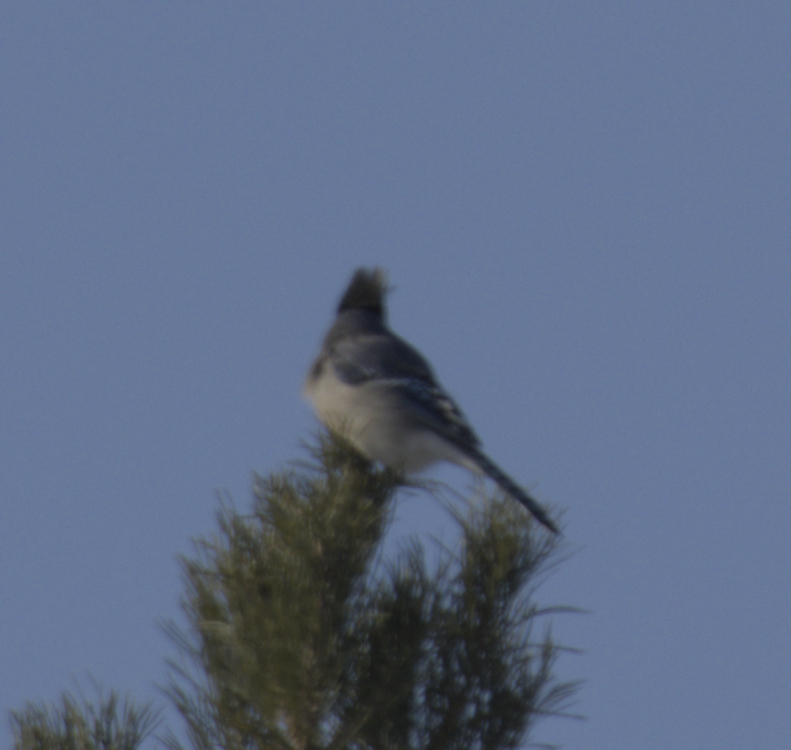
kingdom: Animalia
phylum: Chordata
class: Aves
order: Passeriformes
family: Corvidae
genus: Cyanocitta
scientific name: Cyanocitta cristata
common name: Blue jay
